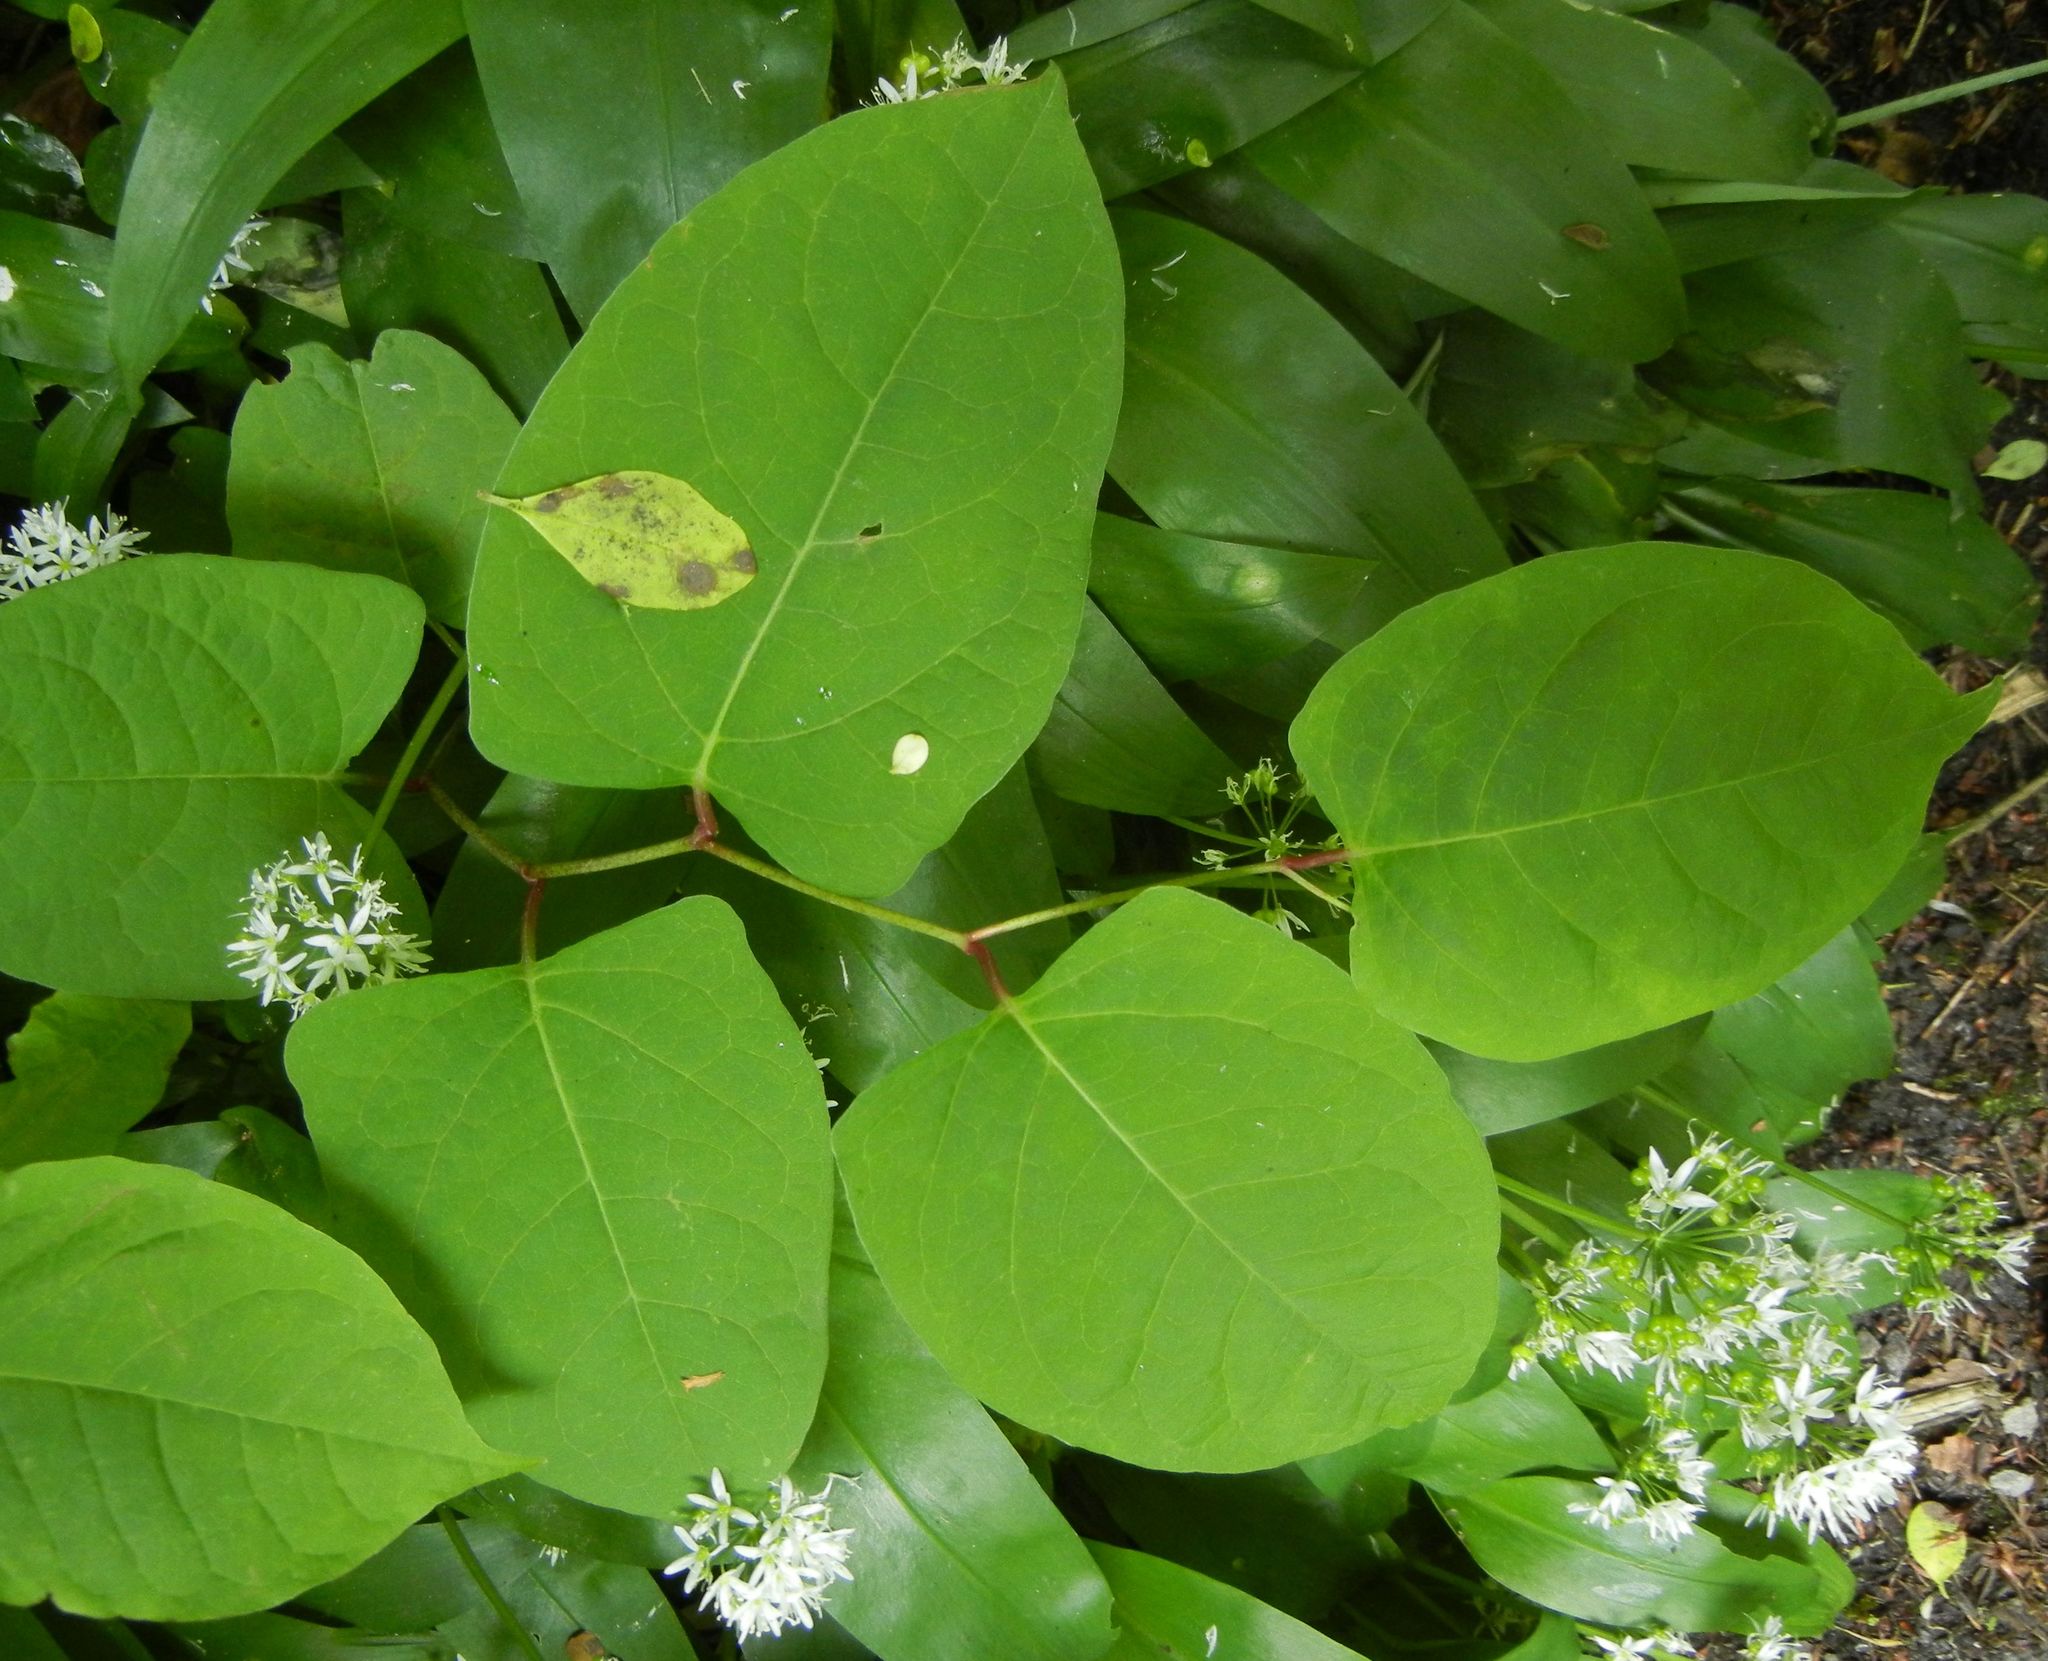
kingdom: Plantae
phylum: Tracheophyta
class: Magnoliopsida
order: Caryophyllales
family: Polygonaceae
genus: Reynoutria
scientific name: Reynoutria japonica
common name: Japanese knotweed
